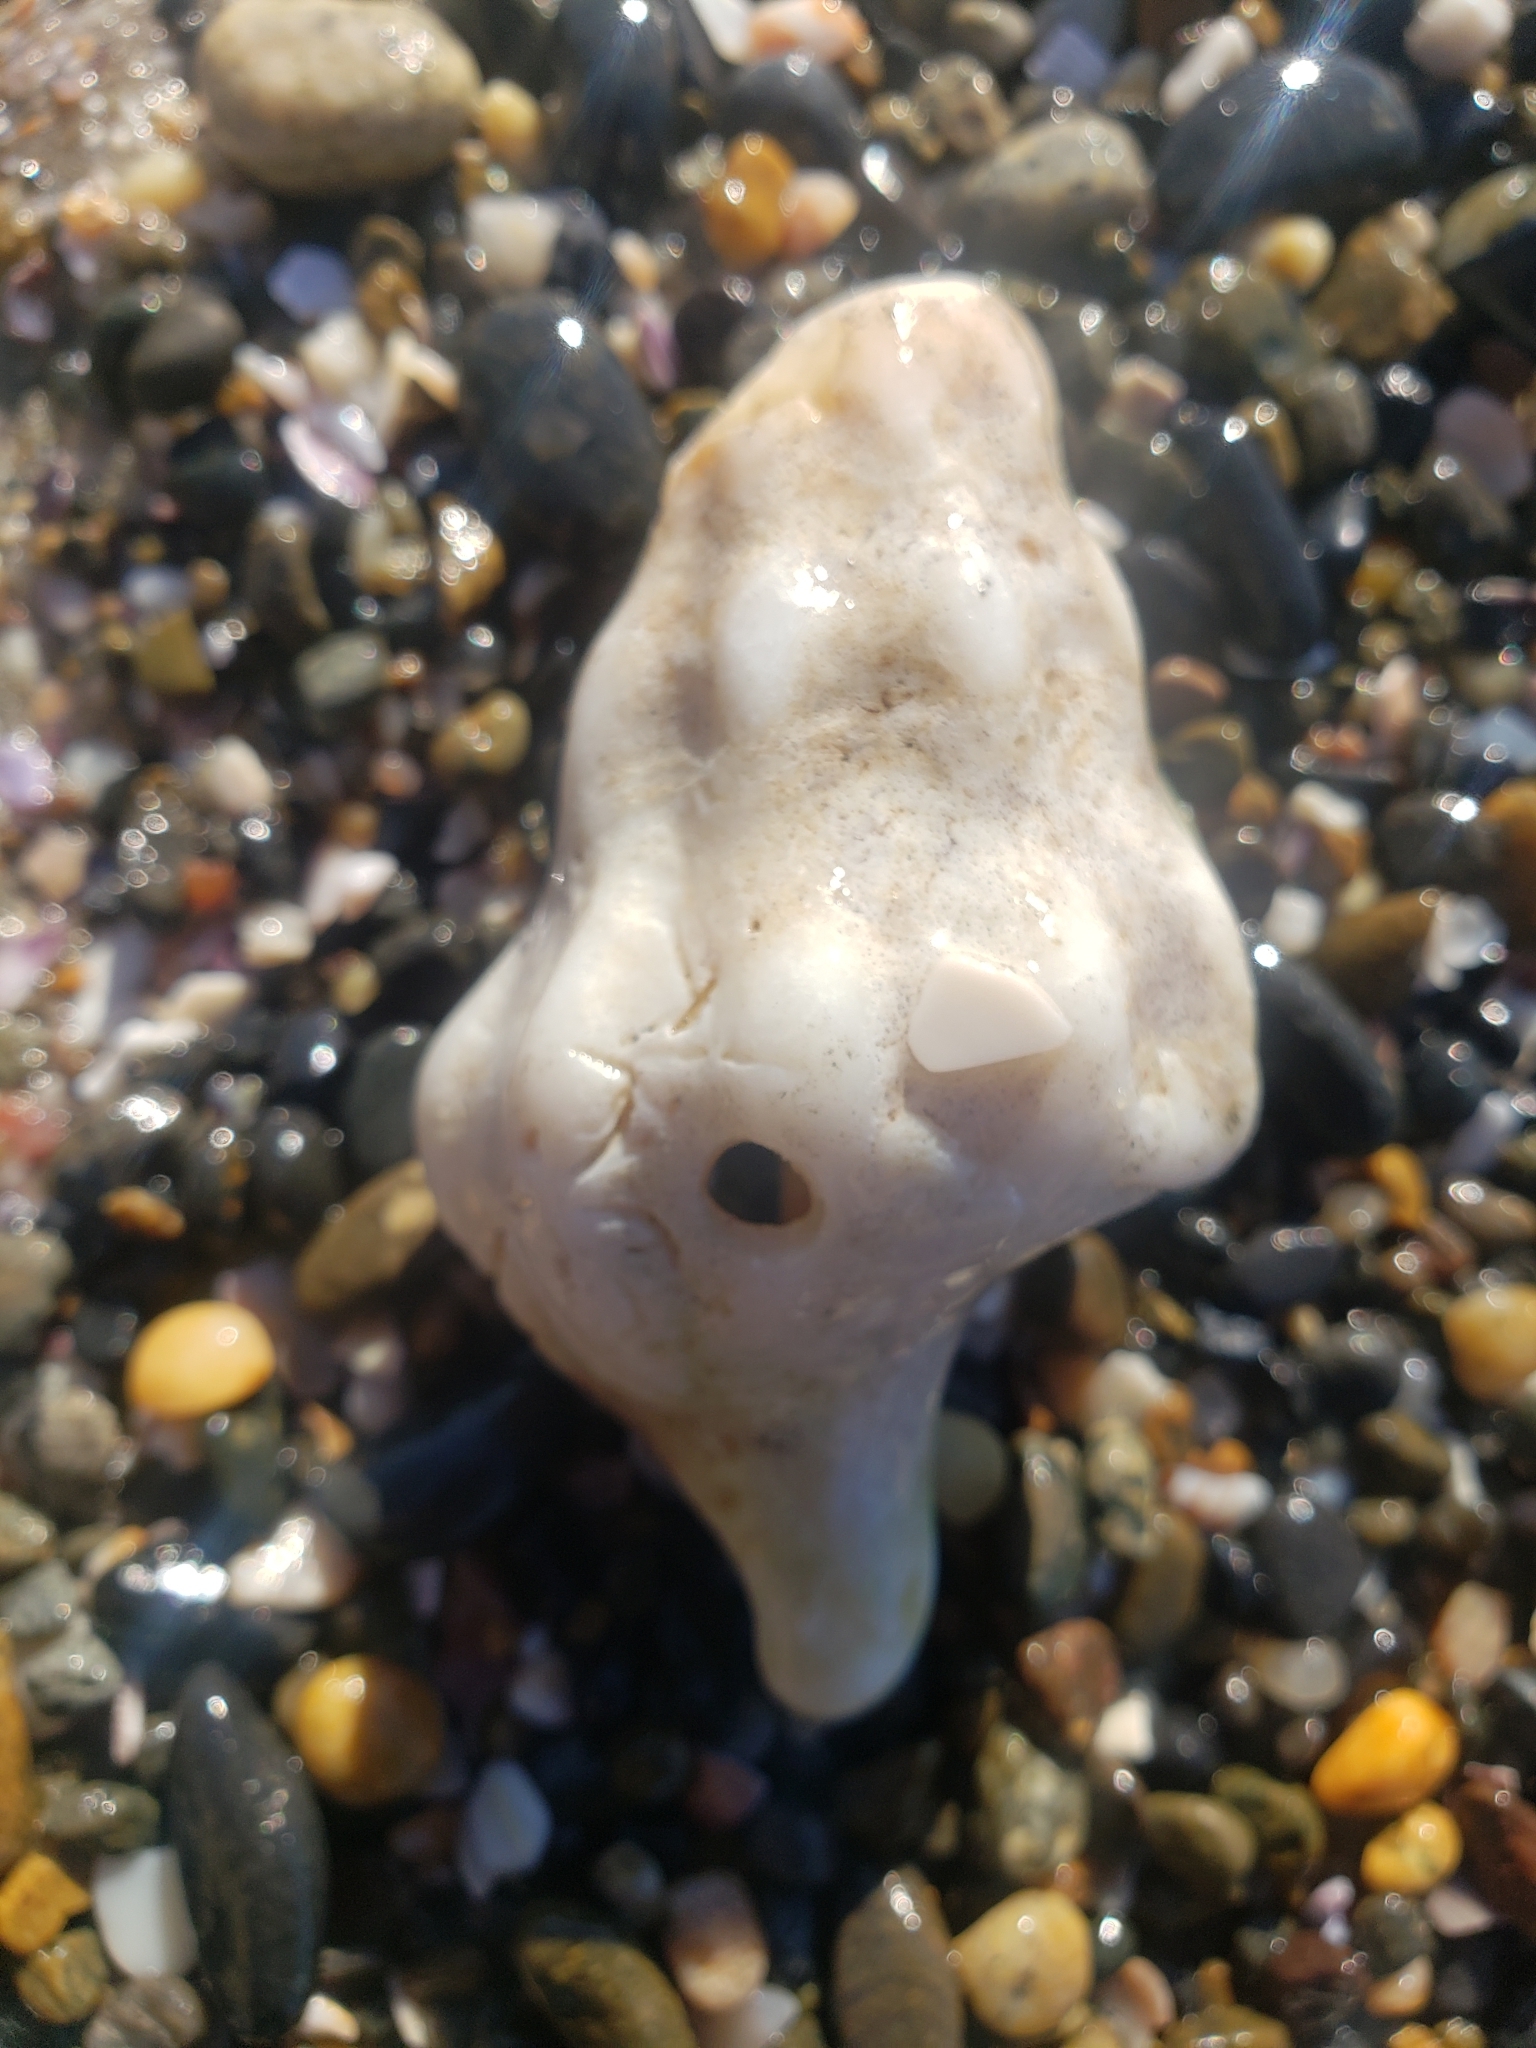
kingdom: Animalia
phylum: Mollusca
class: Gastropoda
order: Neogastropoda
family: Austrosiphonidae
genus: Kelletia
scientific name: Kelletia kelletii
